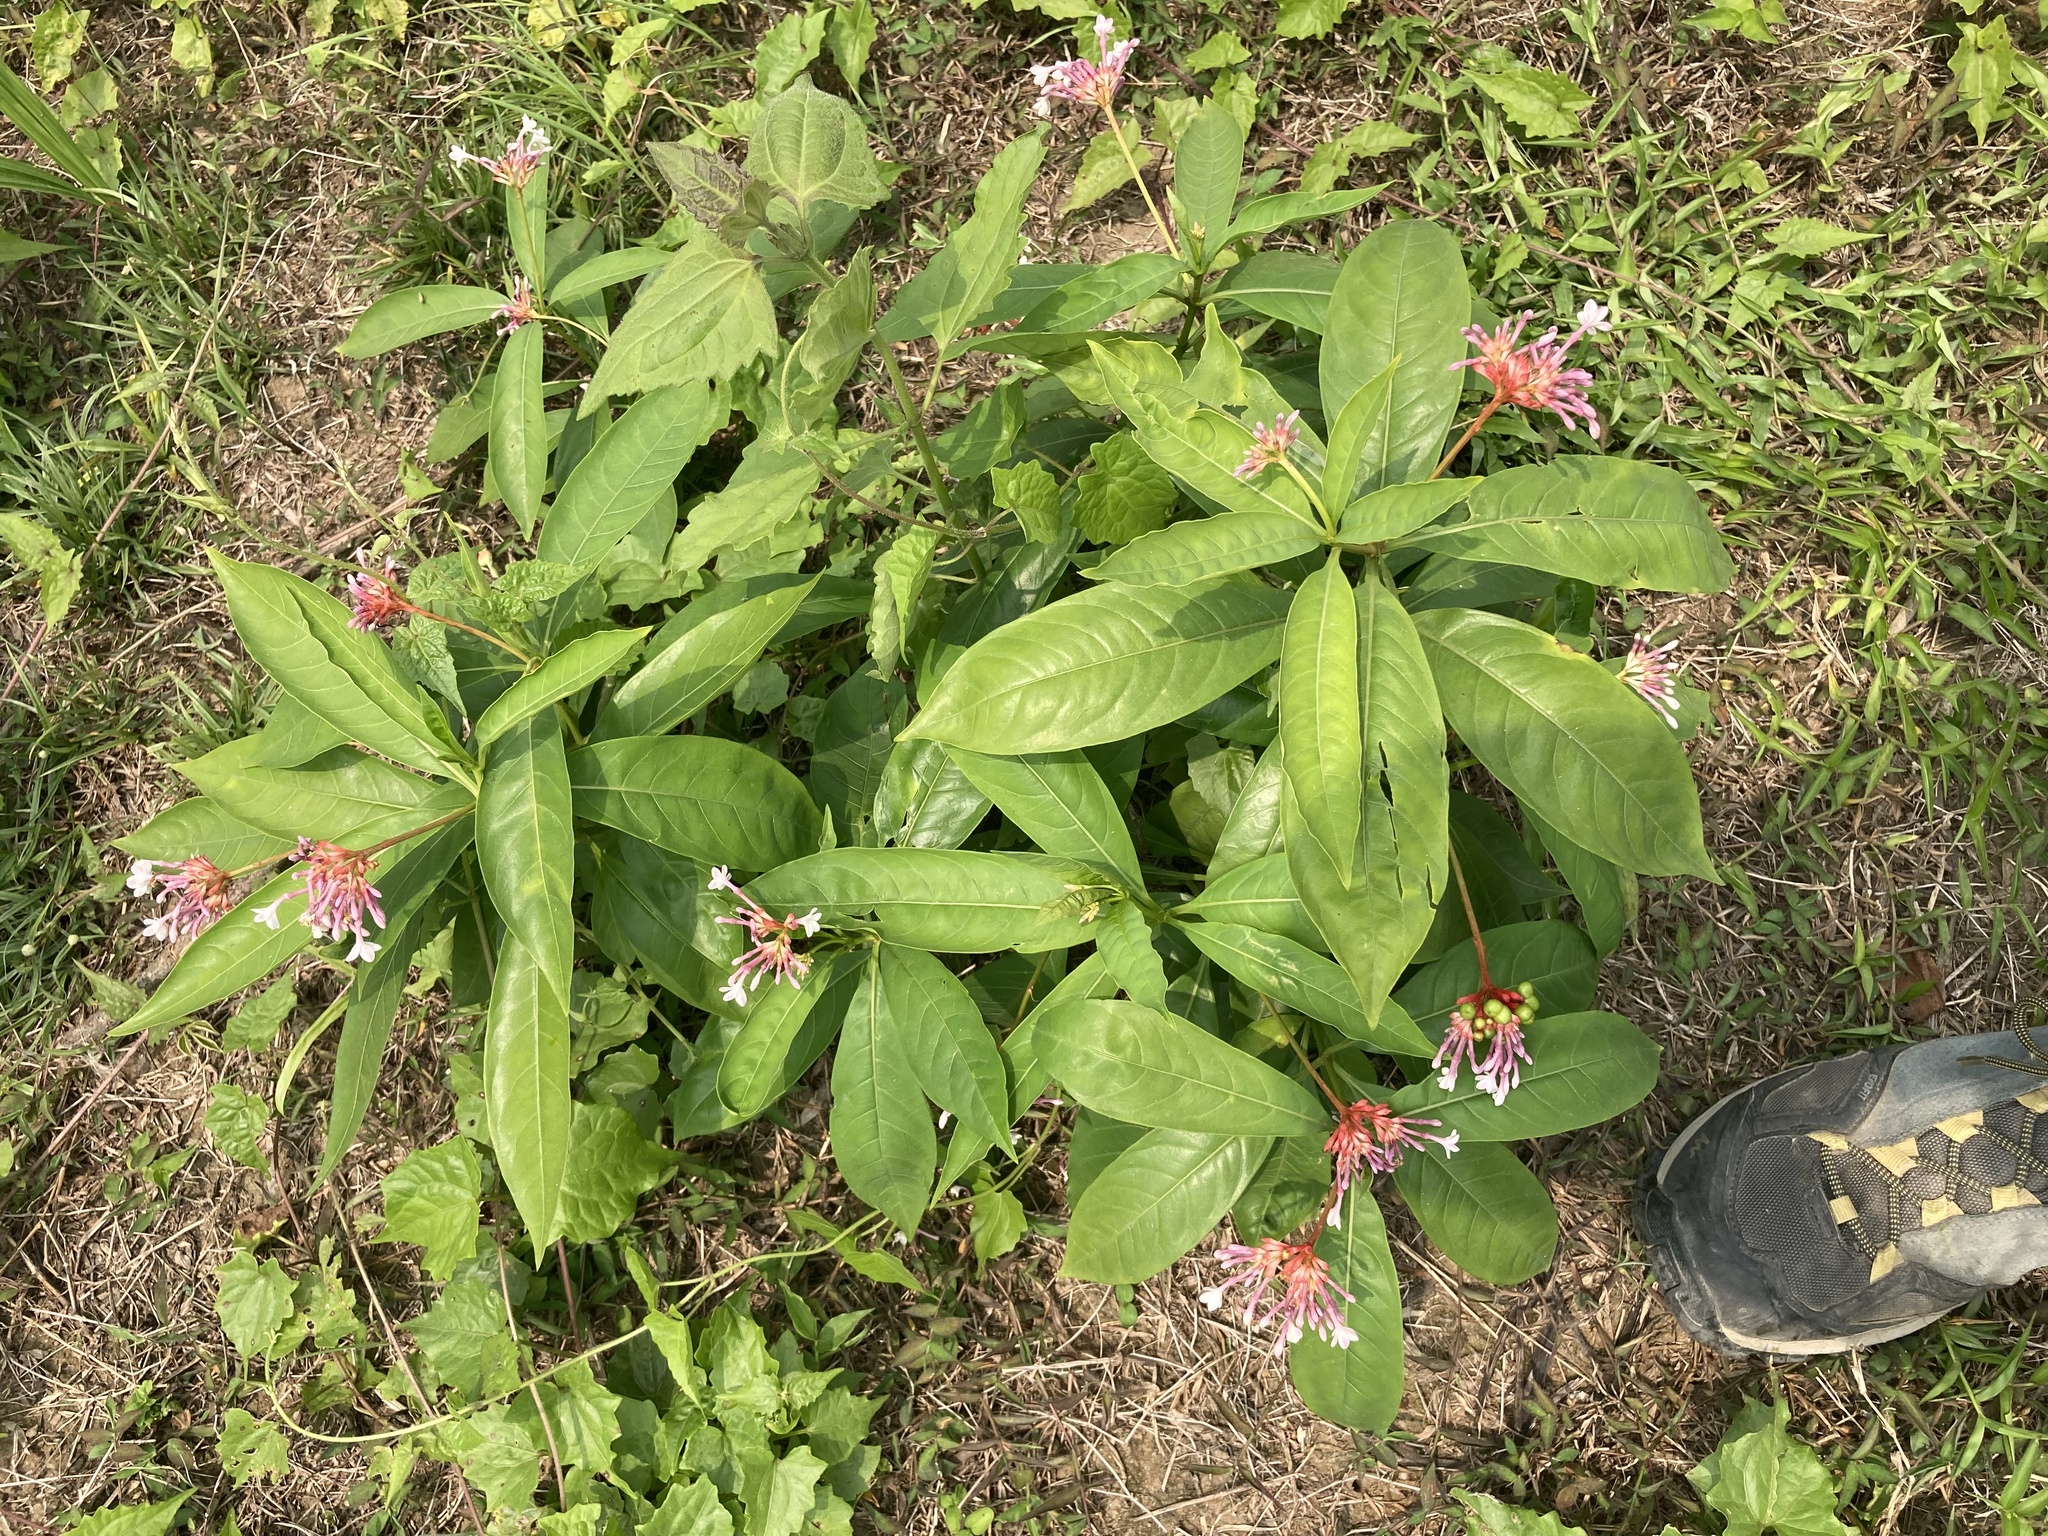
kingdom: Plantae
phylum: Tracheophyta
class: Magnoliopsida
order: Gentianales
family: Apocynaceae
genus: Rauvolfia
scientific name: Rauvolfia serpentina
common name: Ajmaline
